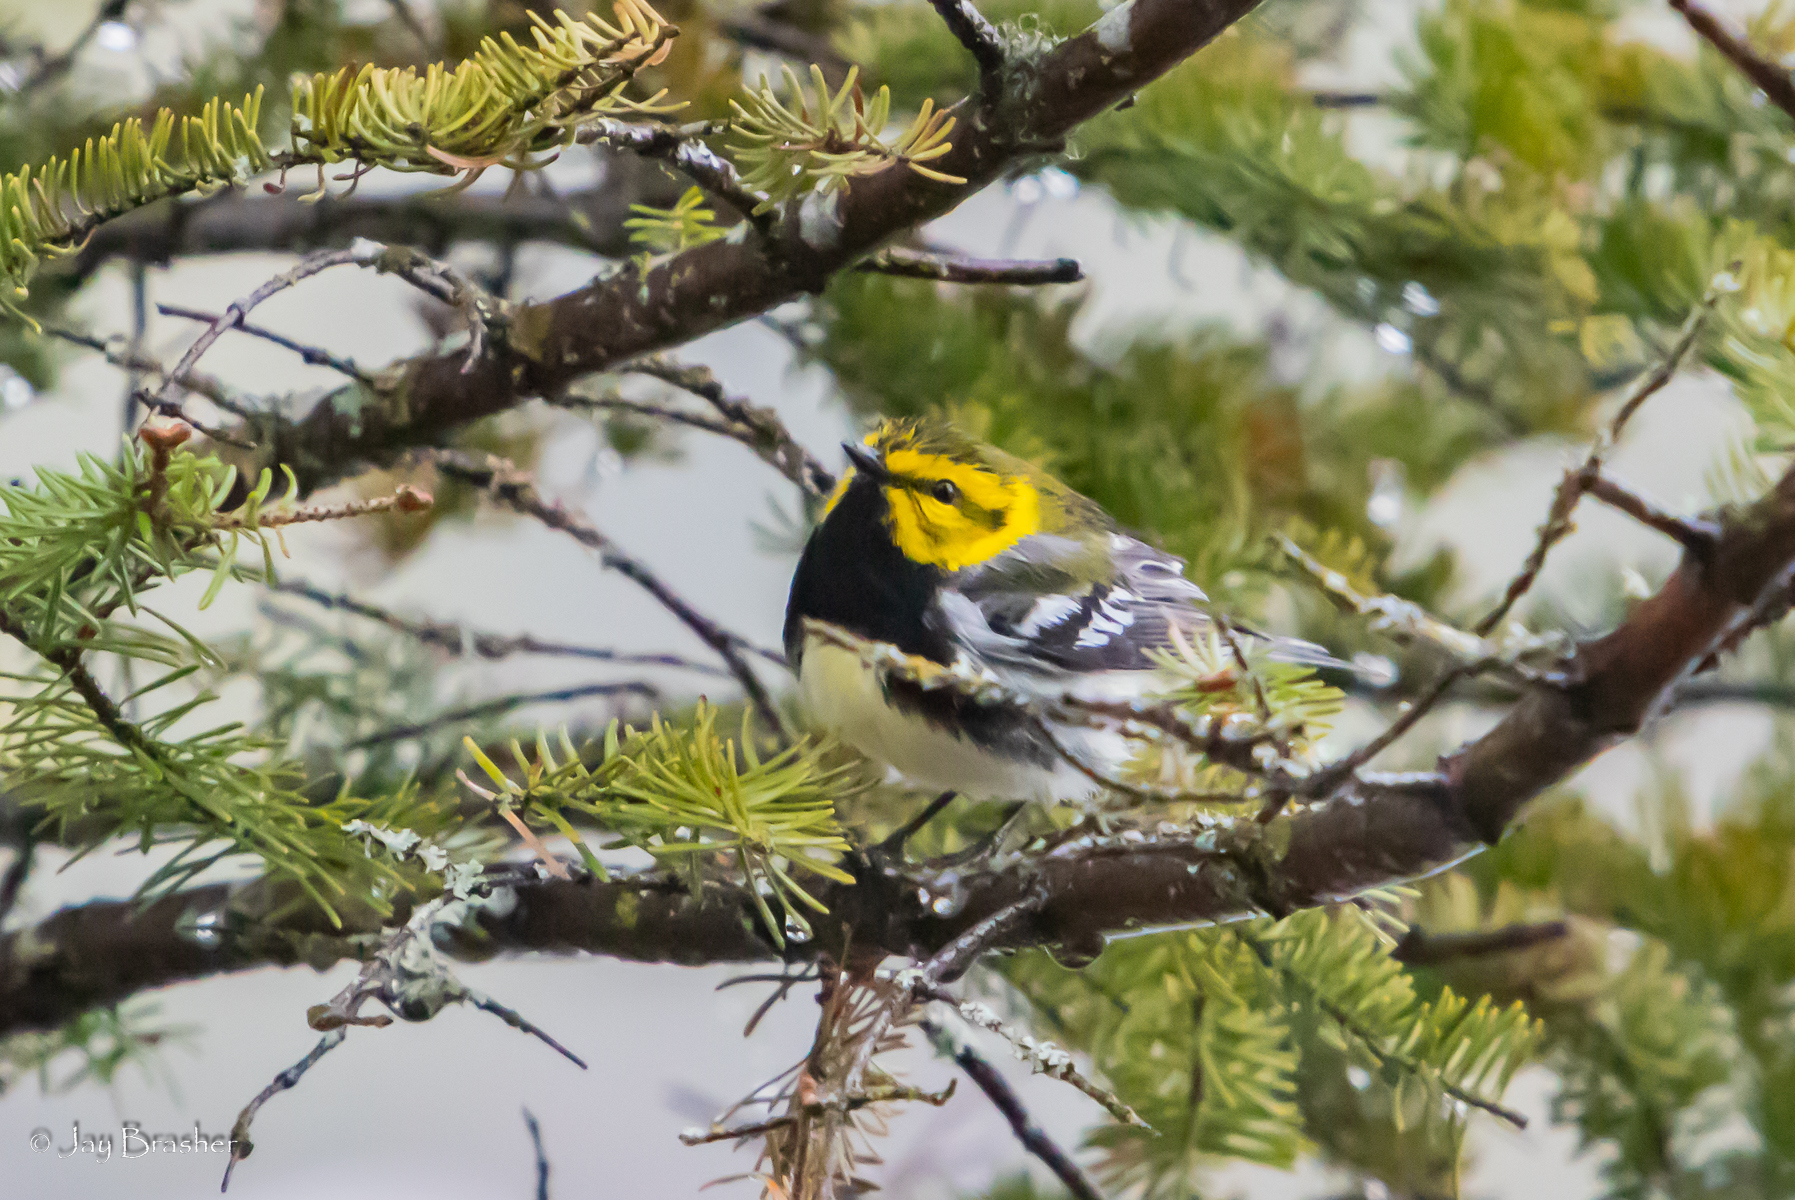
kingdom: Animalia
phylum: Chordata
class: Aves
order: Passeriformes
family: Parulidae
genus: Setophaga
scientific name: Setophaga virens
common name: Black-throated green warbler
